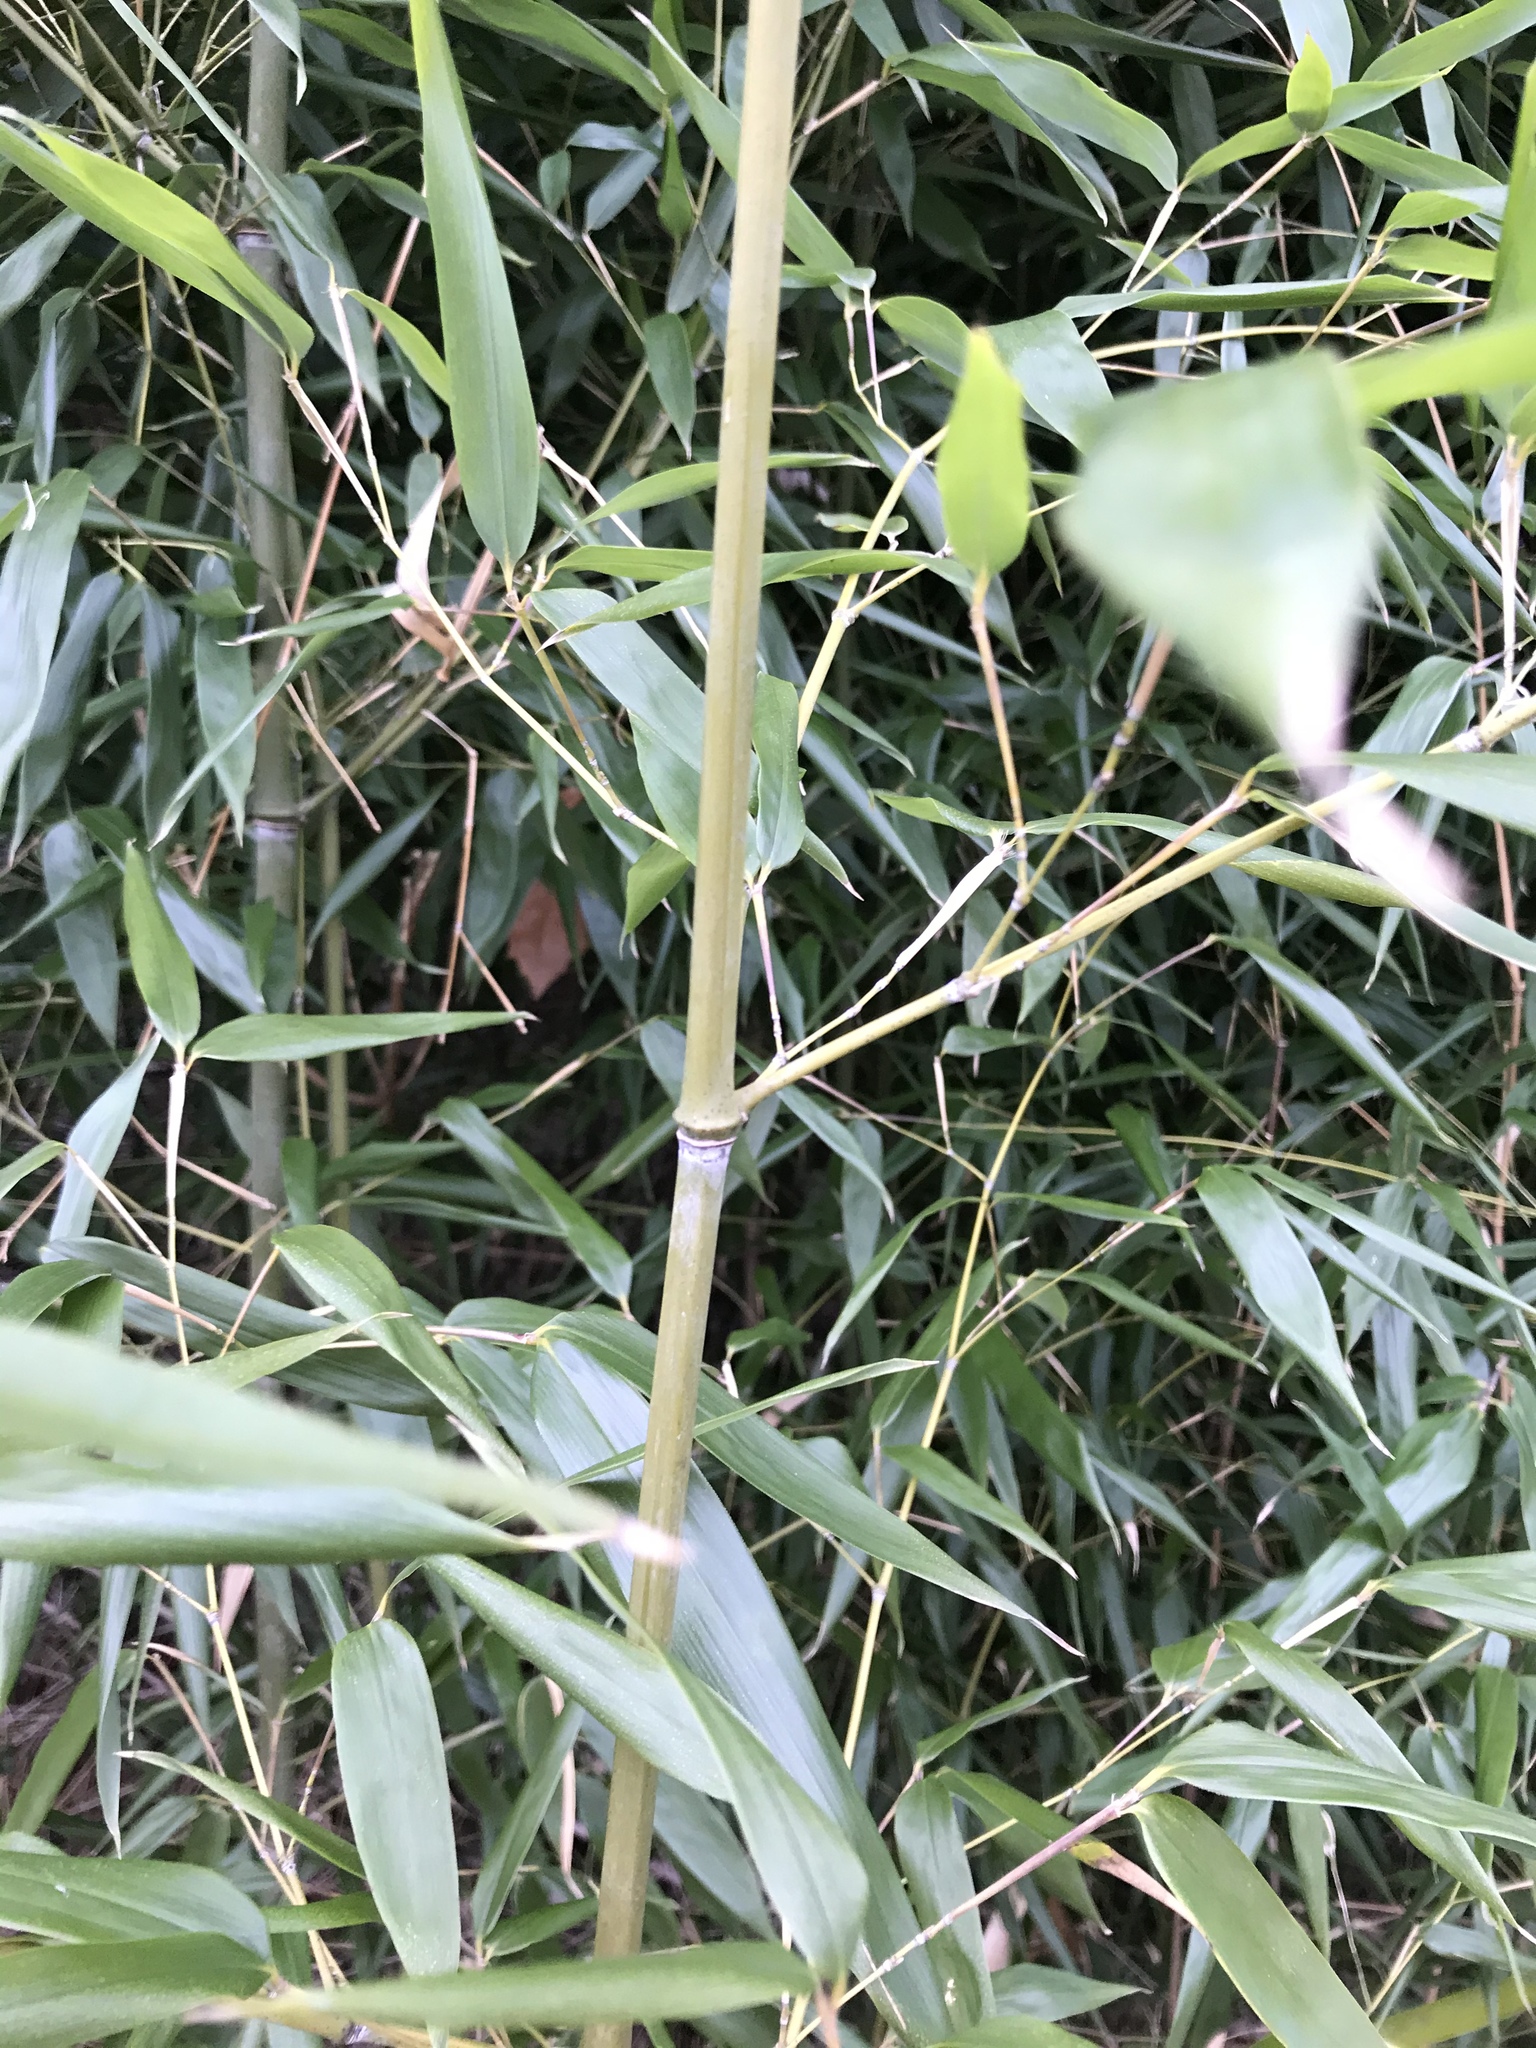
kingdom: Plantae
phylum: Tracheophyta
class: Liliopsida
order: Poales
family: Poaceae
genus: Phyllostachys
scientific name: Phyllostachys aurea
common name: Golden bamboo
